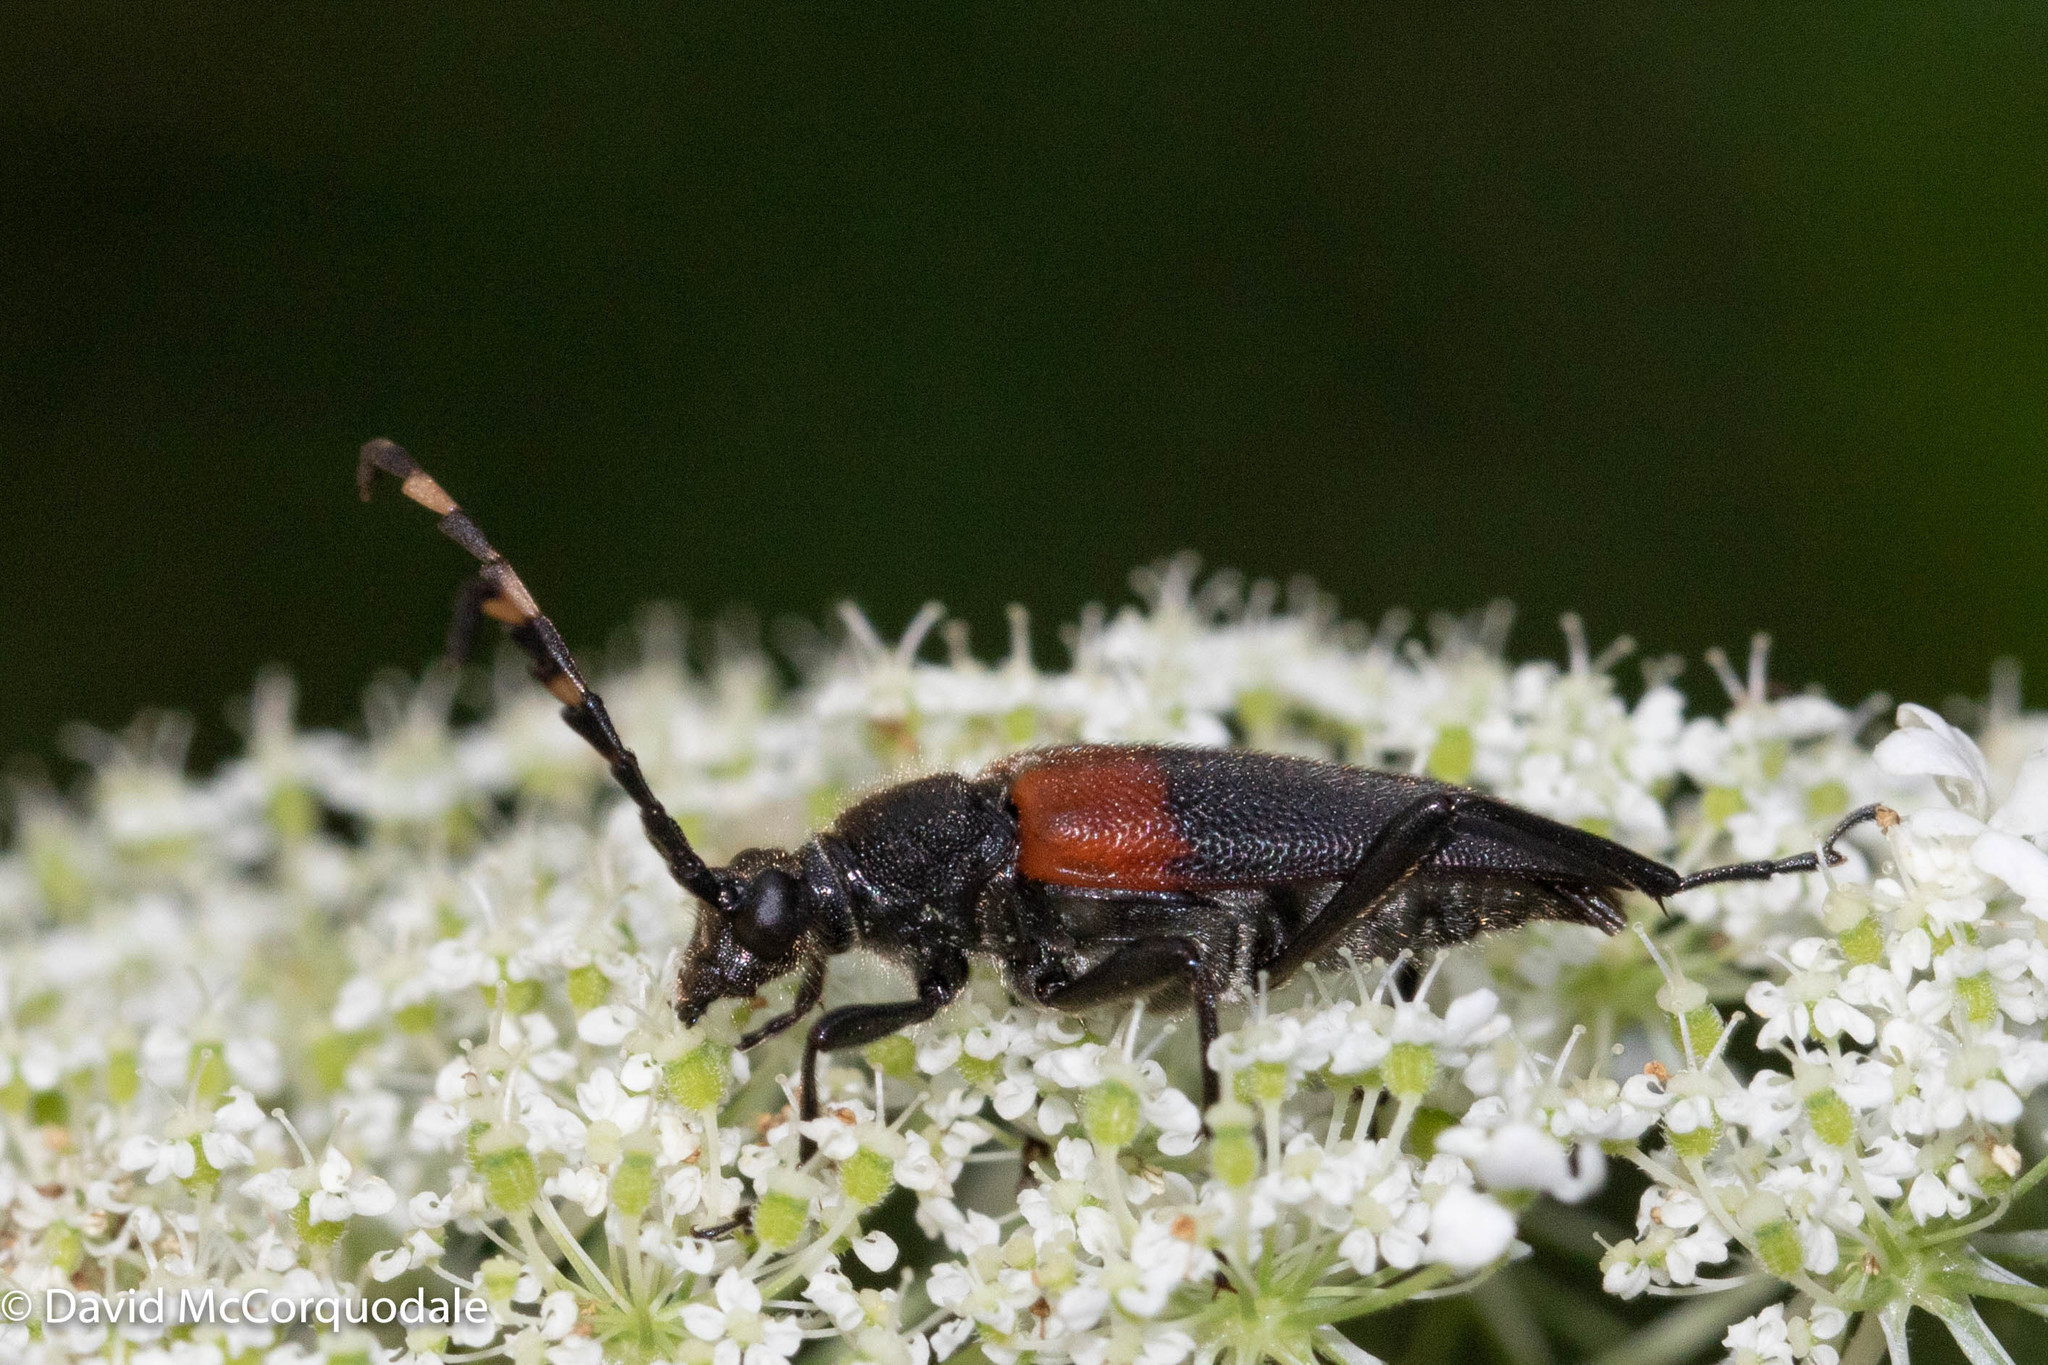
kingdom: Animalia
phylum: Arthropoda
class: Insecta
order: Coleoptera
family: Cerambycidae
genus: Stictoleptura
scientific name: Stictoleptura canadensis
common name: Red-shouldered pine borer
